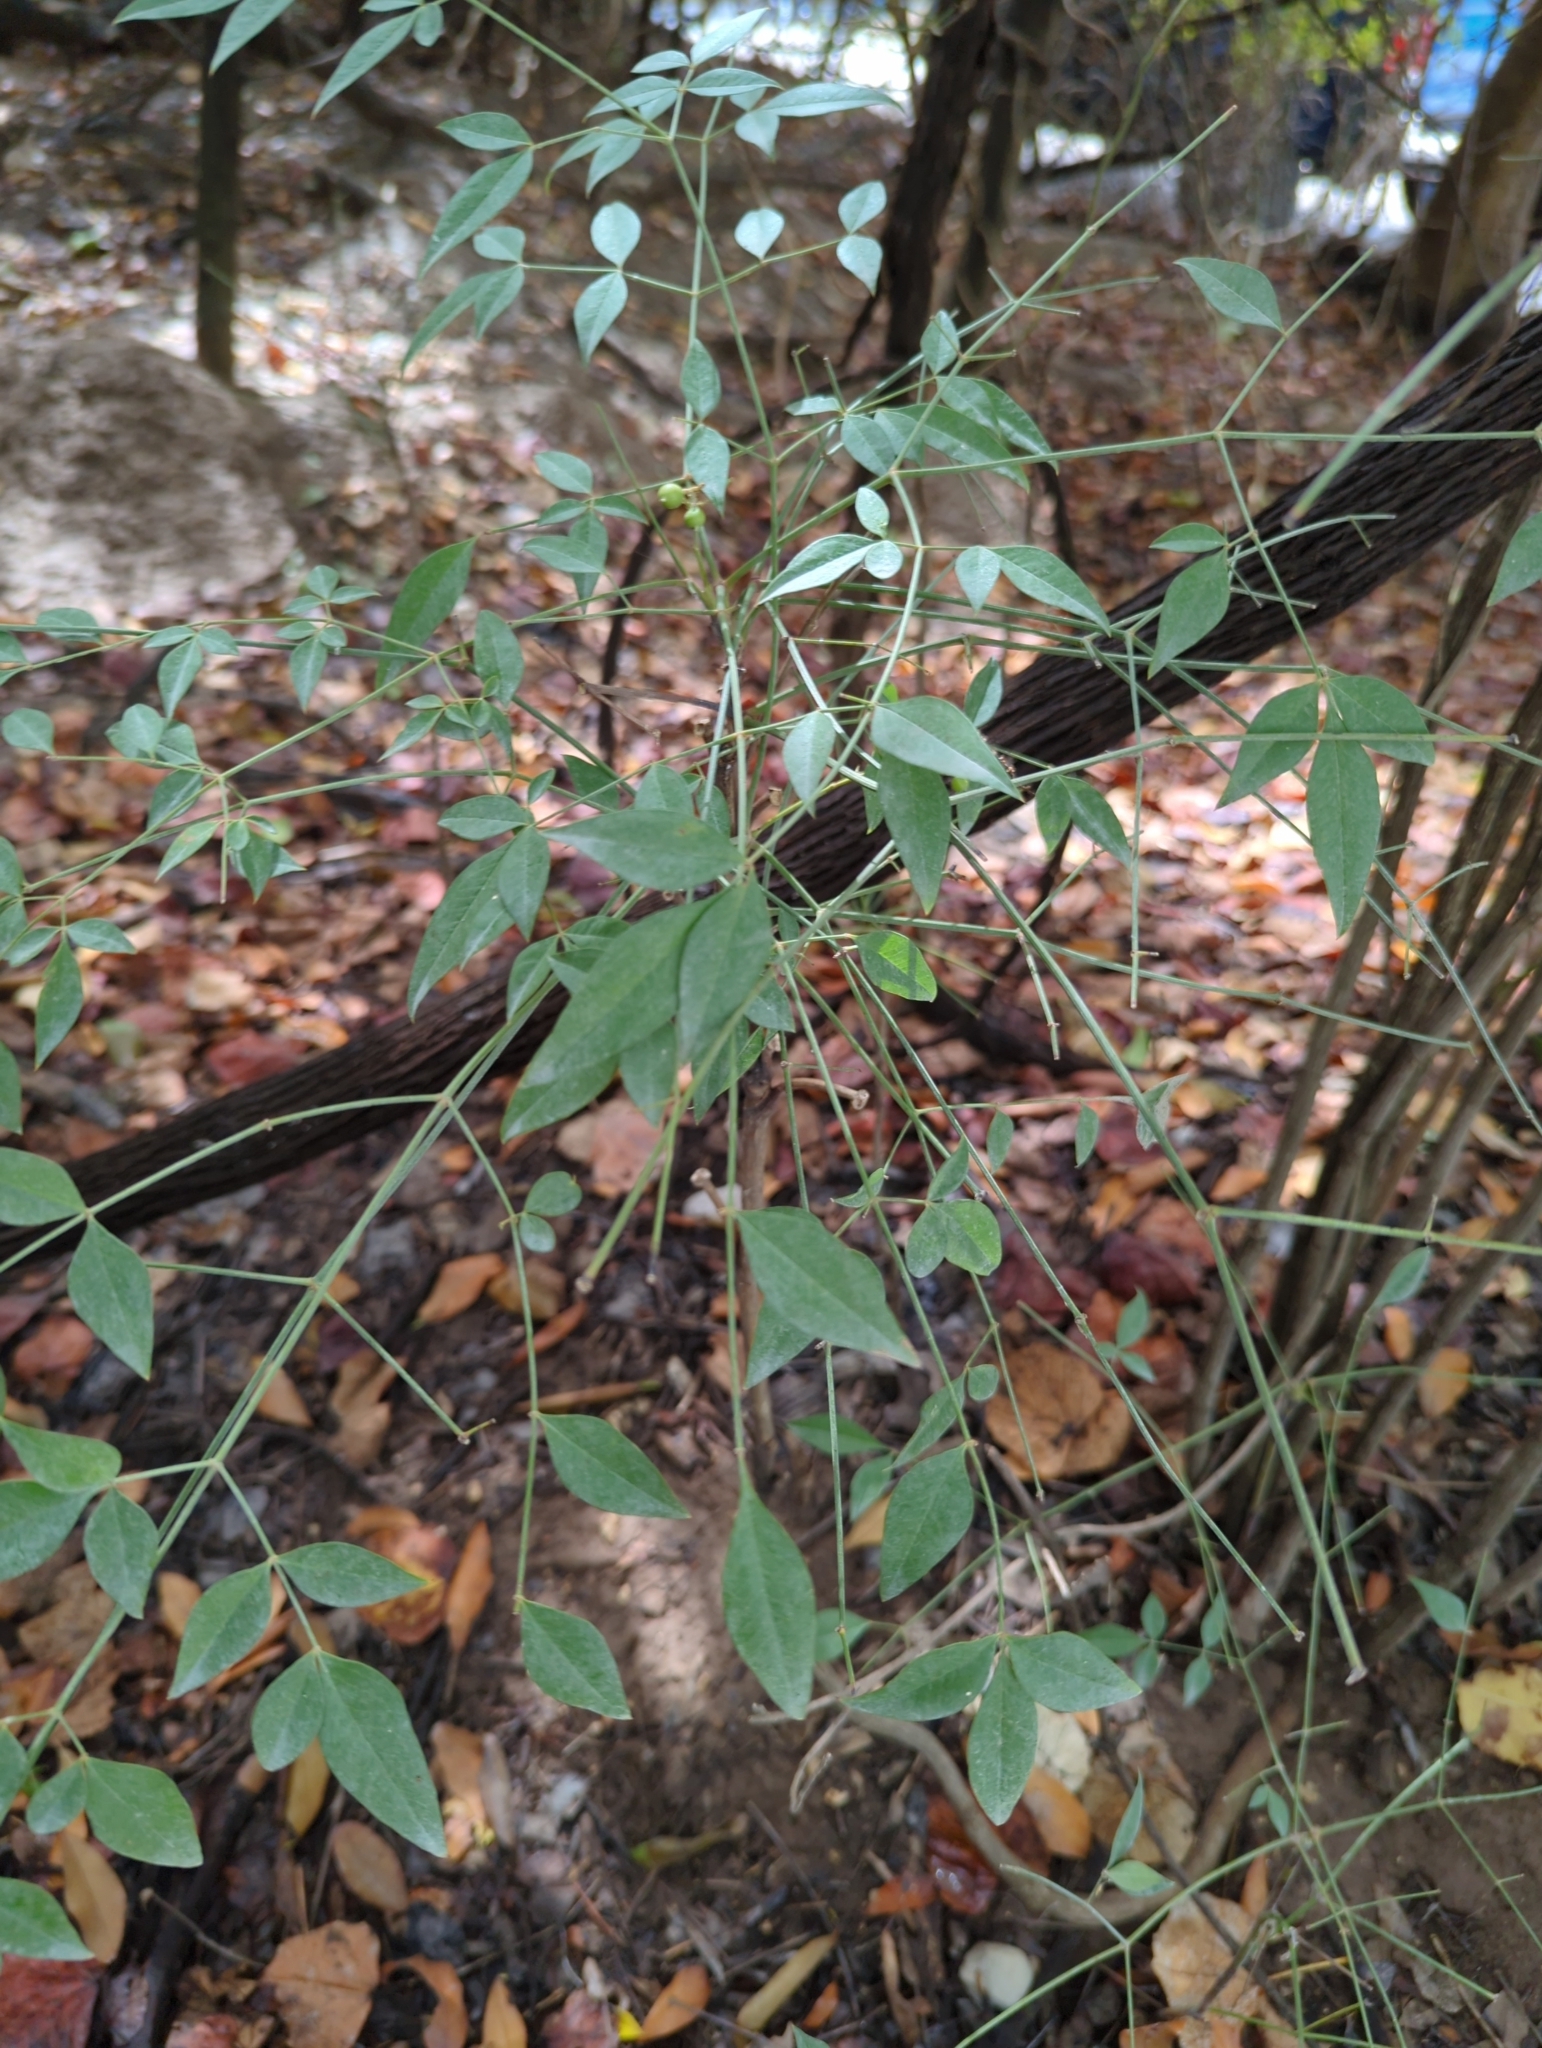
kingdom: Plantae
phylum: Tracheophyta
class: Magnoliopsida
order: Ranunculales
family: Berberidaceae
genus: Nandina
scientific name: Nandina domestica
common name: Sacred bamboo
